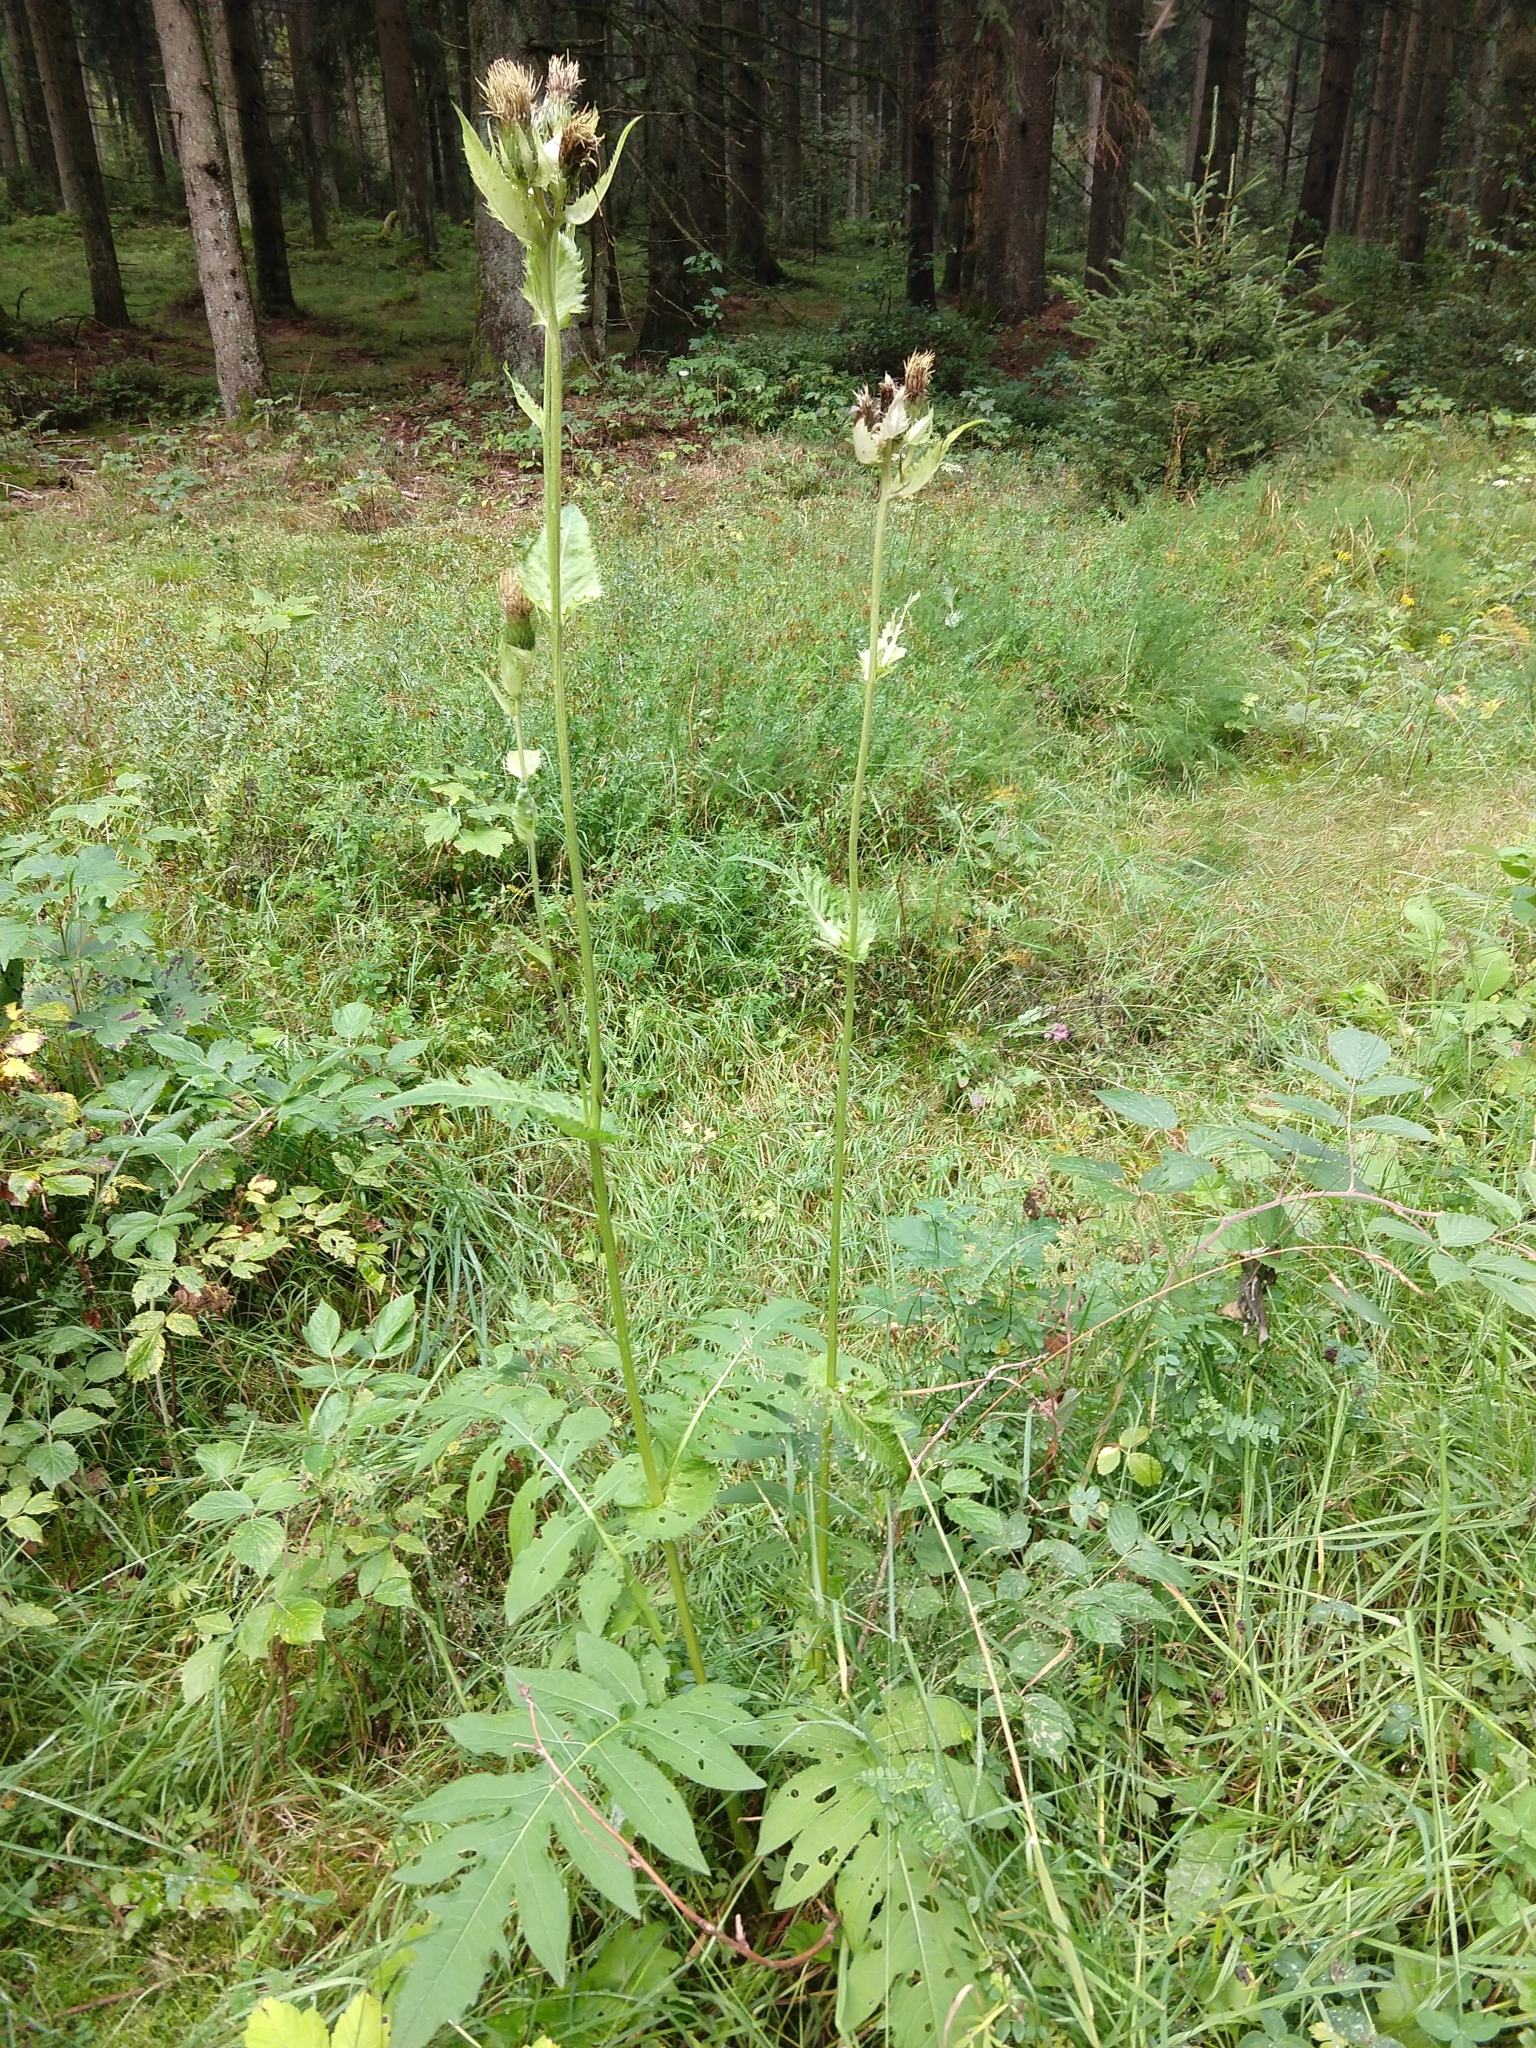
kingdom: Plantae
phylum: Tracheophyta
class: Magnoliopsida
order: Asterales
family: Asteraceae
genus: Cirsium
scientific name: Cirsium oleraceum
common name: Cabbage thistle
